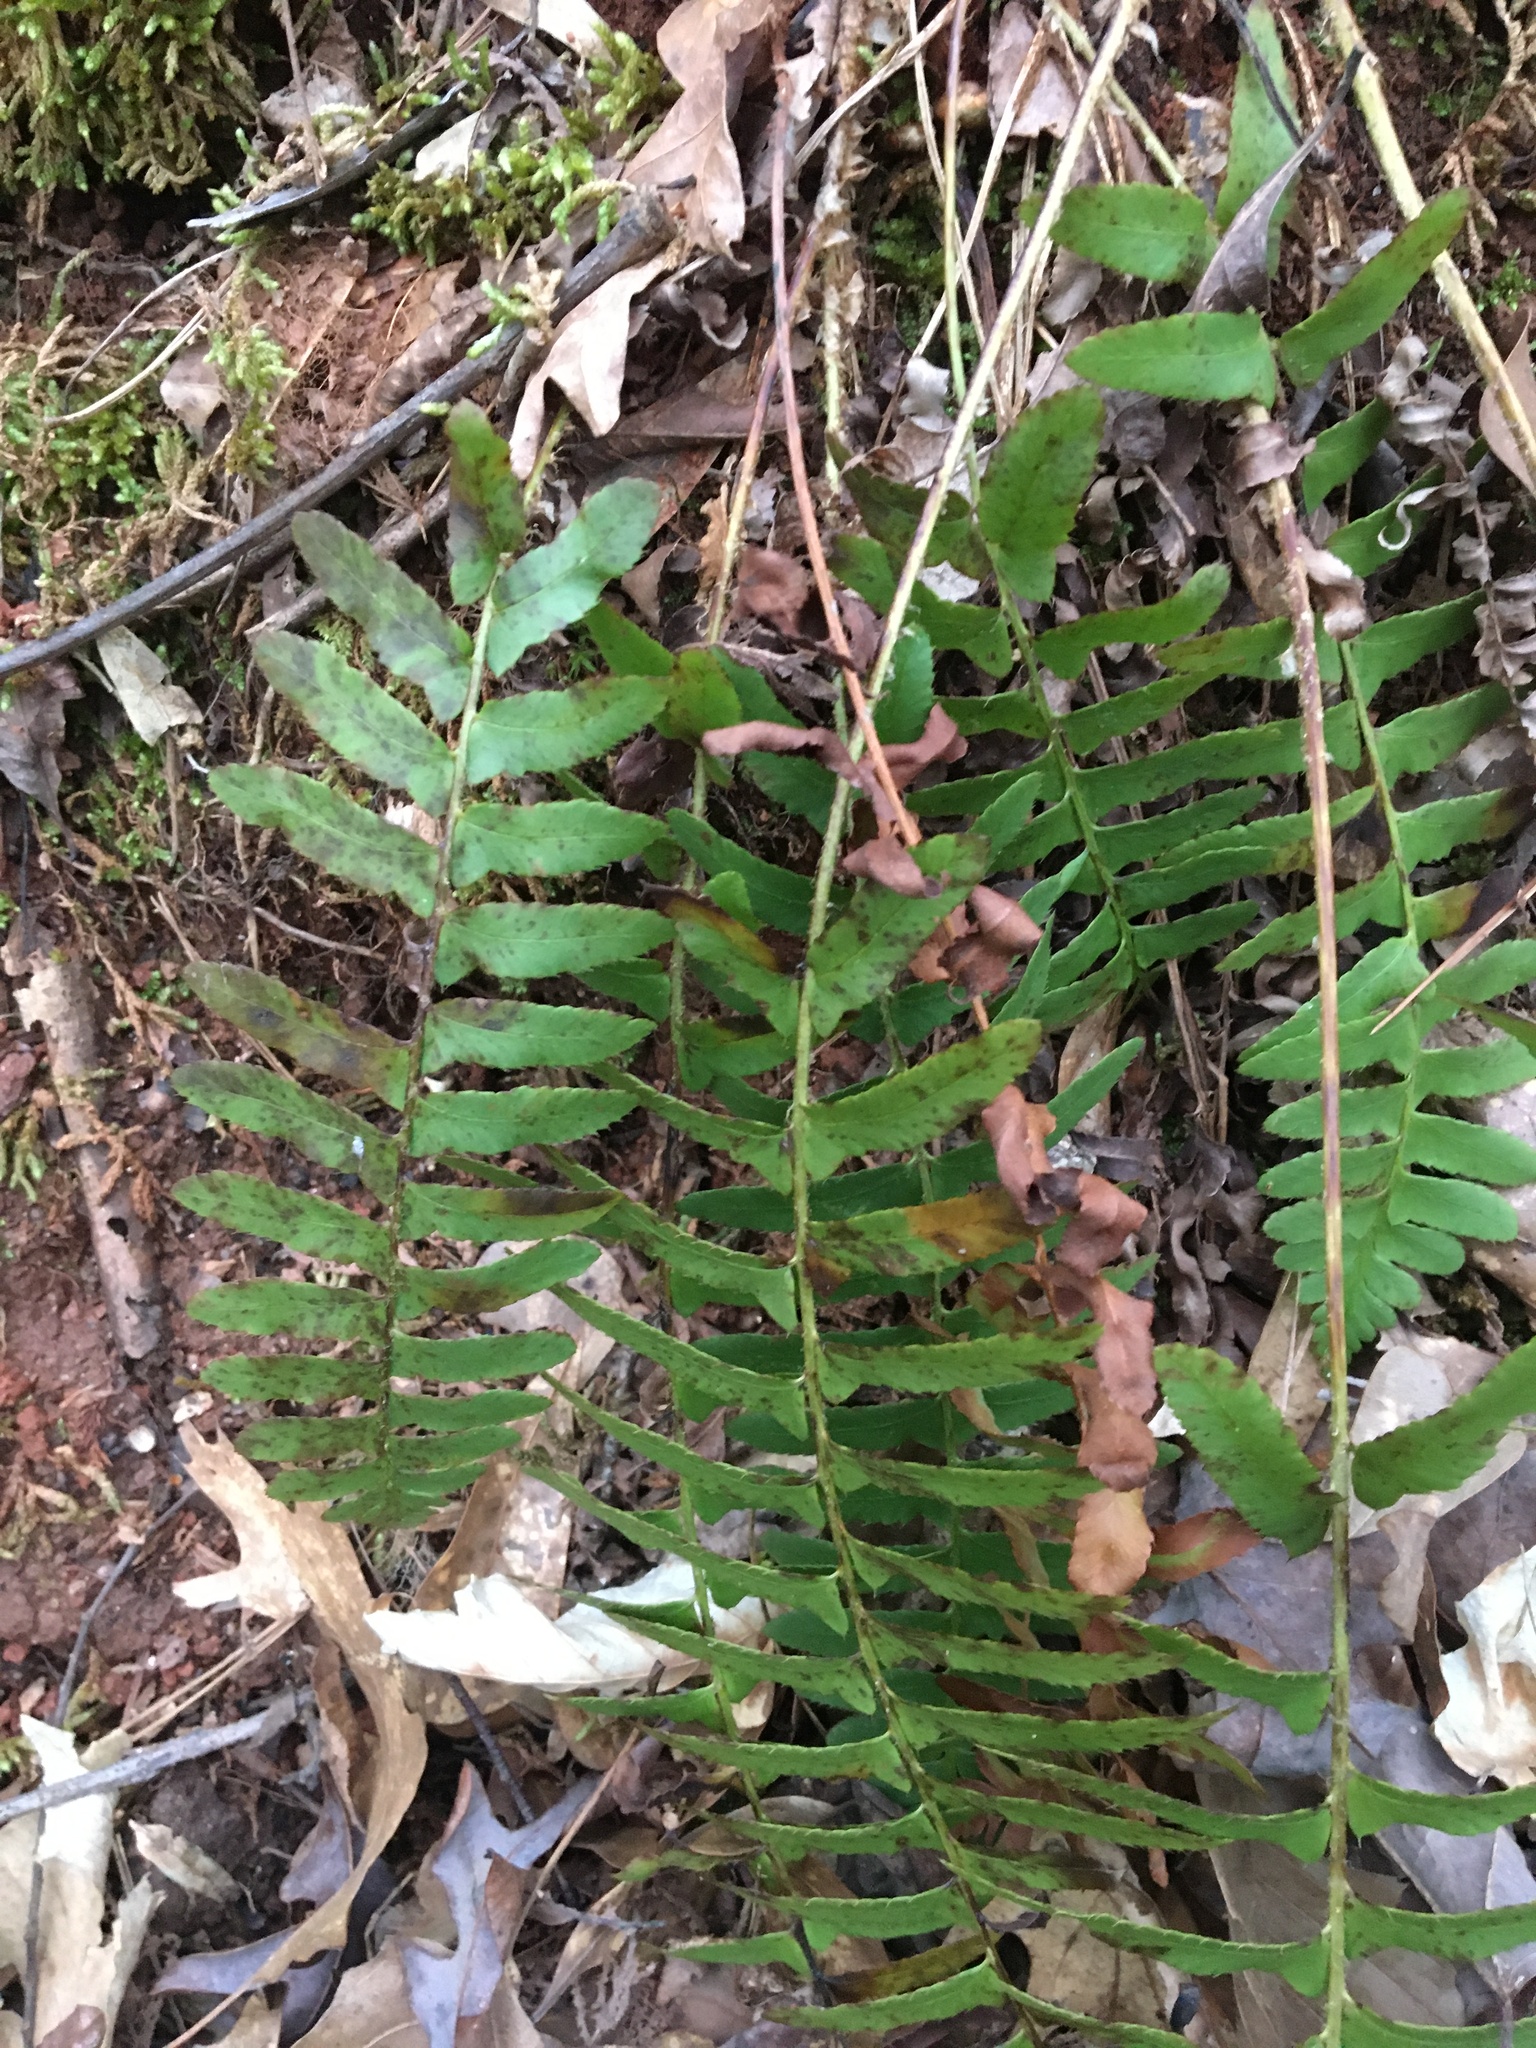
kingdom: Plantae
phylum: Tracheophyta
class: Polypodiopsida
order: Polypodiales
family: Dryopteridaceae
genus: Polystichum
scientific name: Polystichum acrostichoides
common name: Christmas fern
